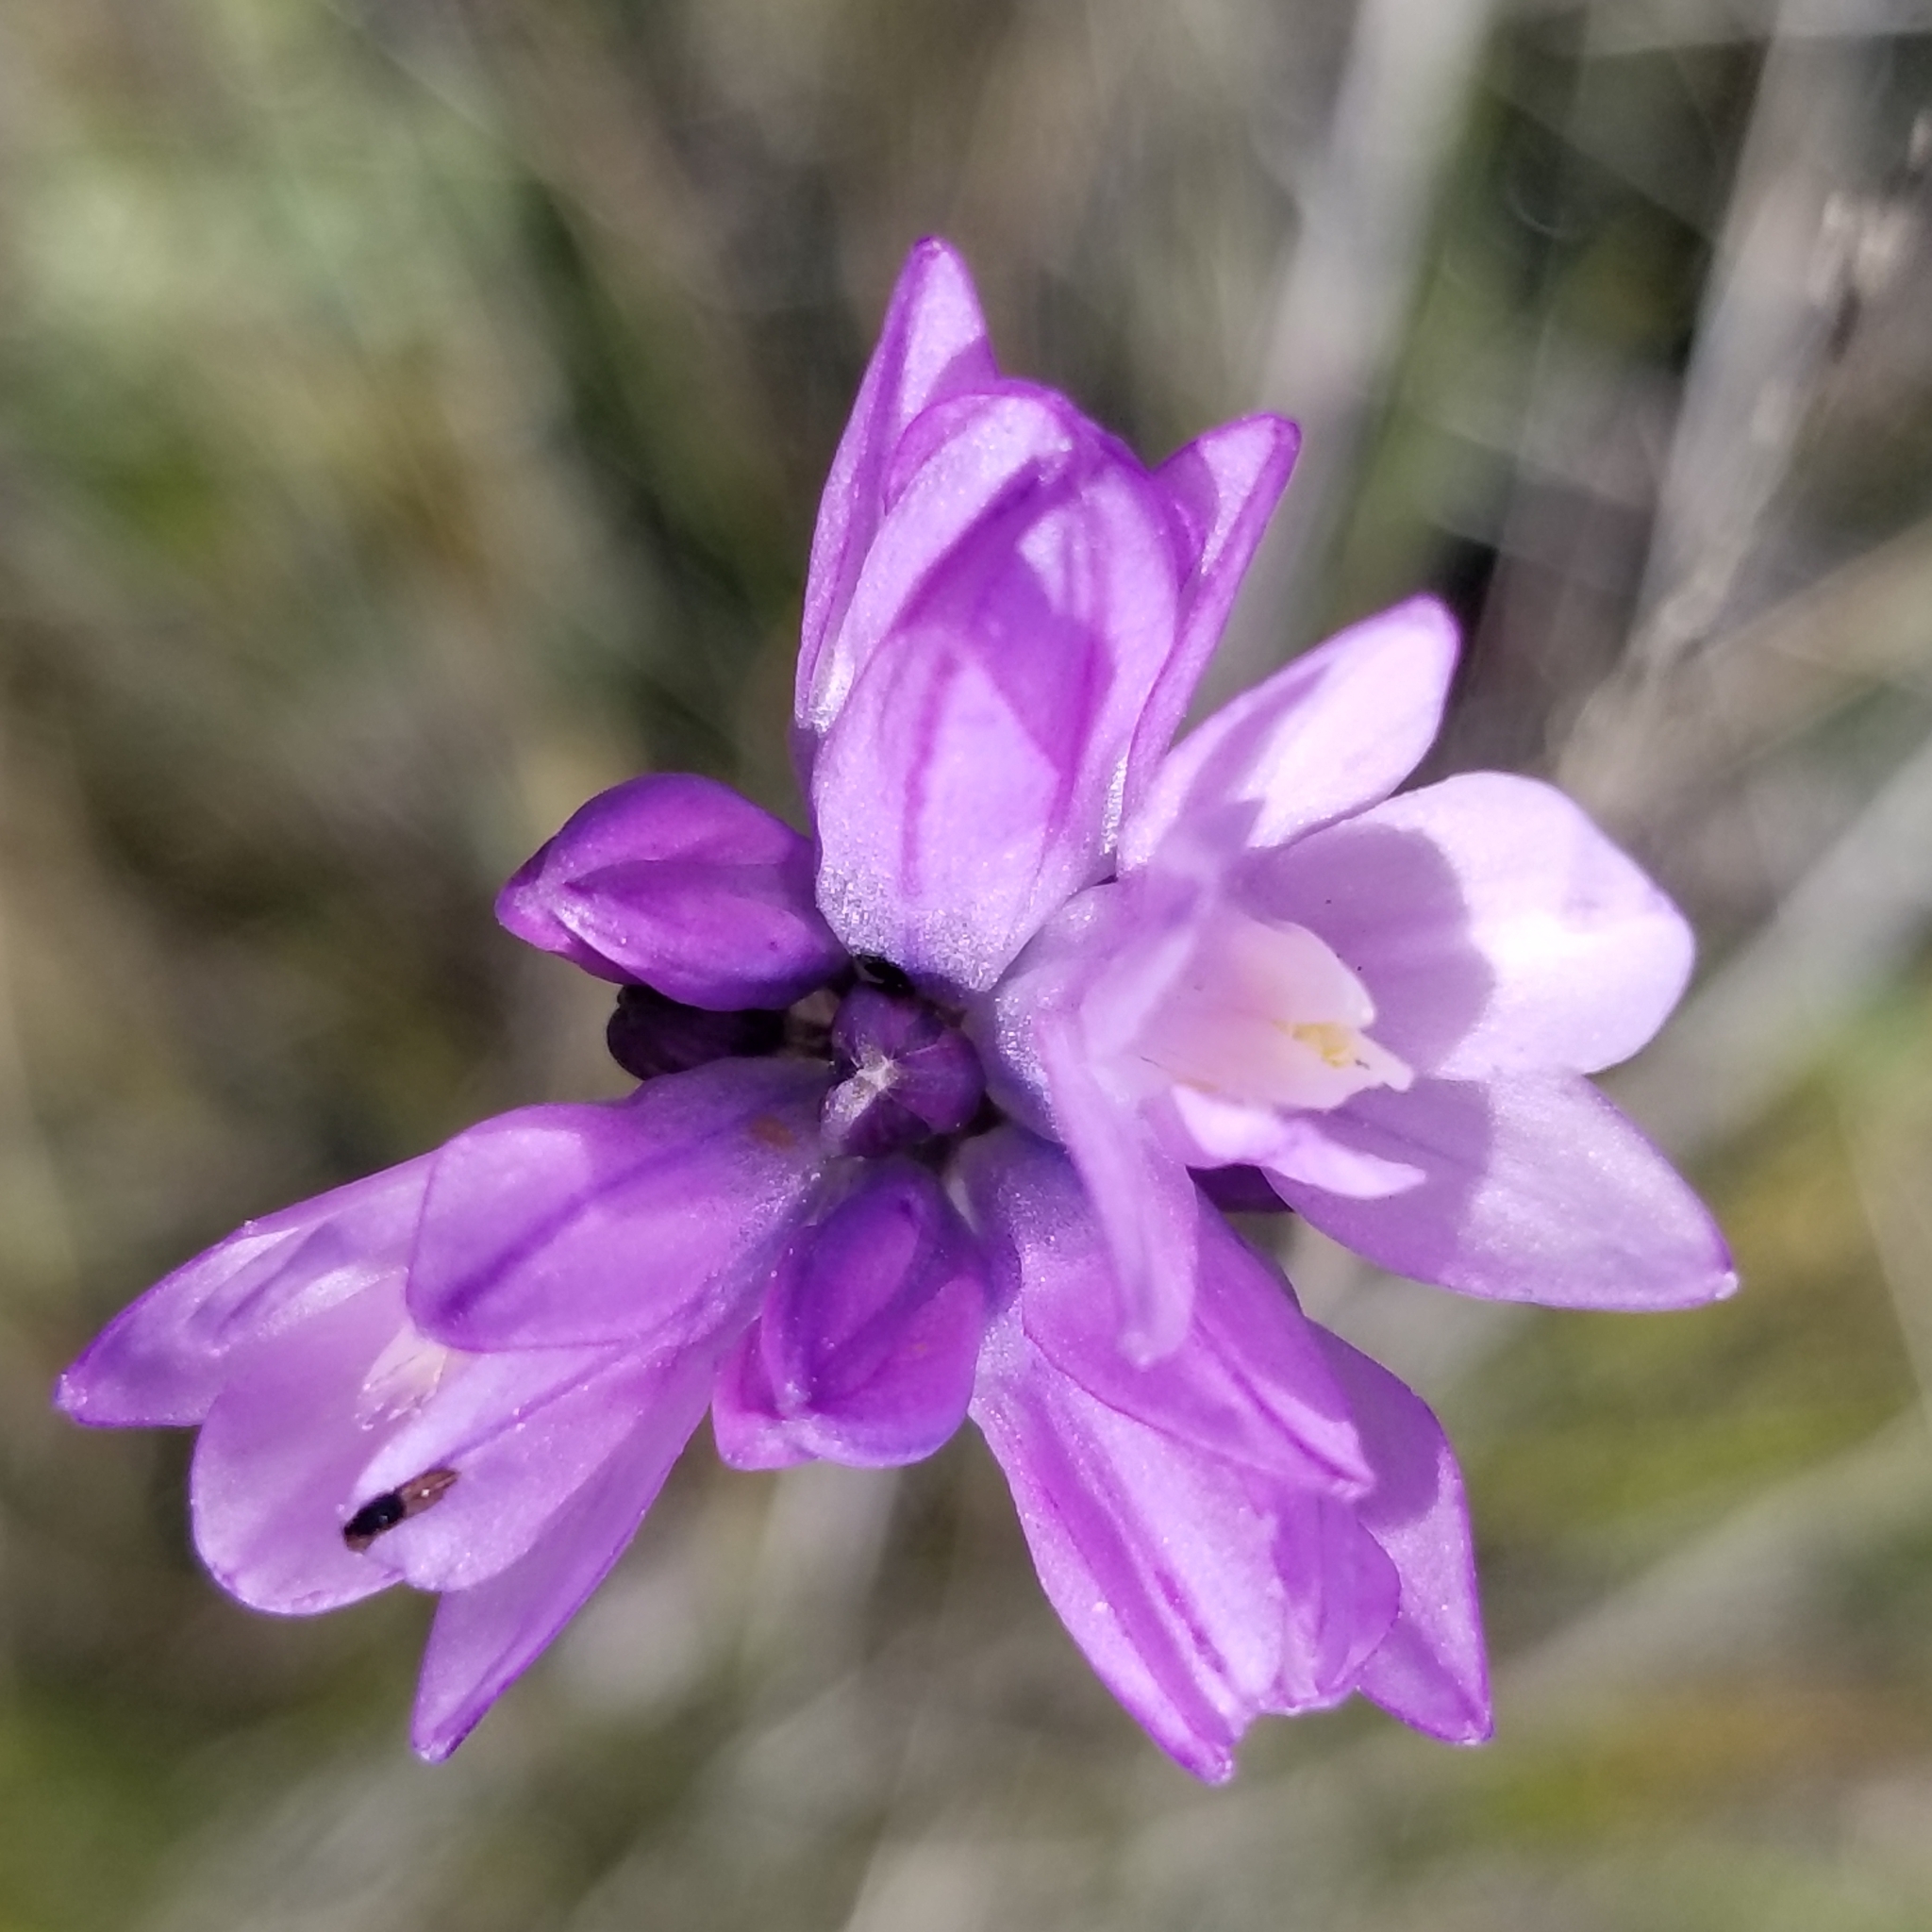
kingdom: Plantae
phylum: Tracheophyta
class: Liliopsida
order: Asparagales
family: Asparagaceae
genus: Dipterostemon
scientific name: Dipterostemon capitatus
